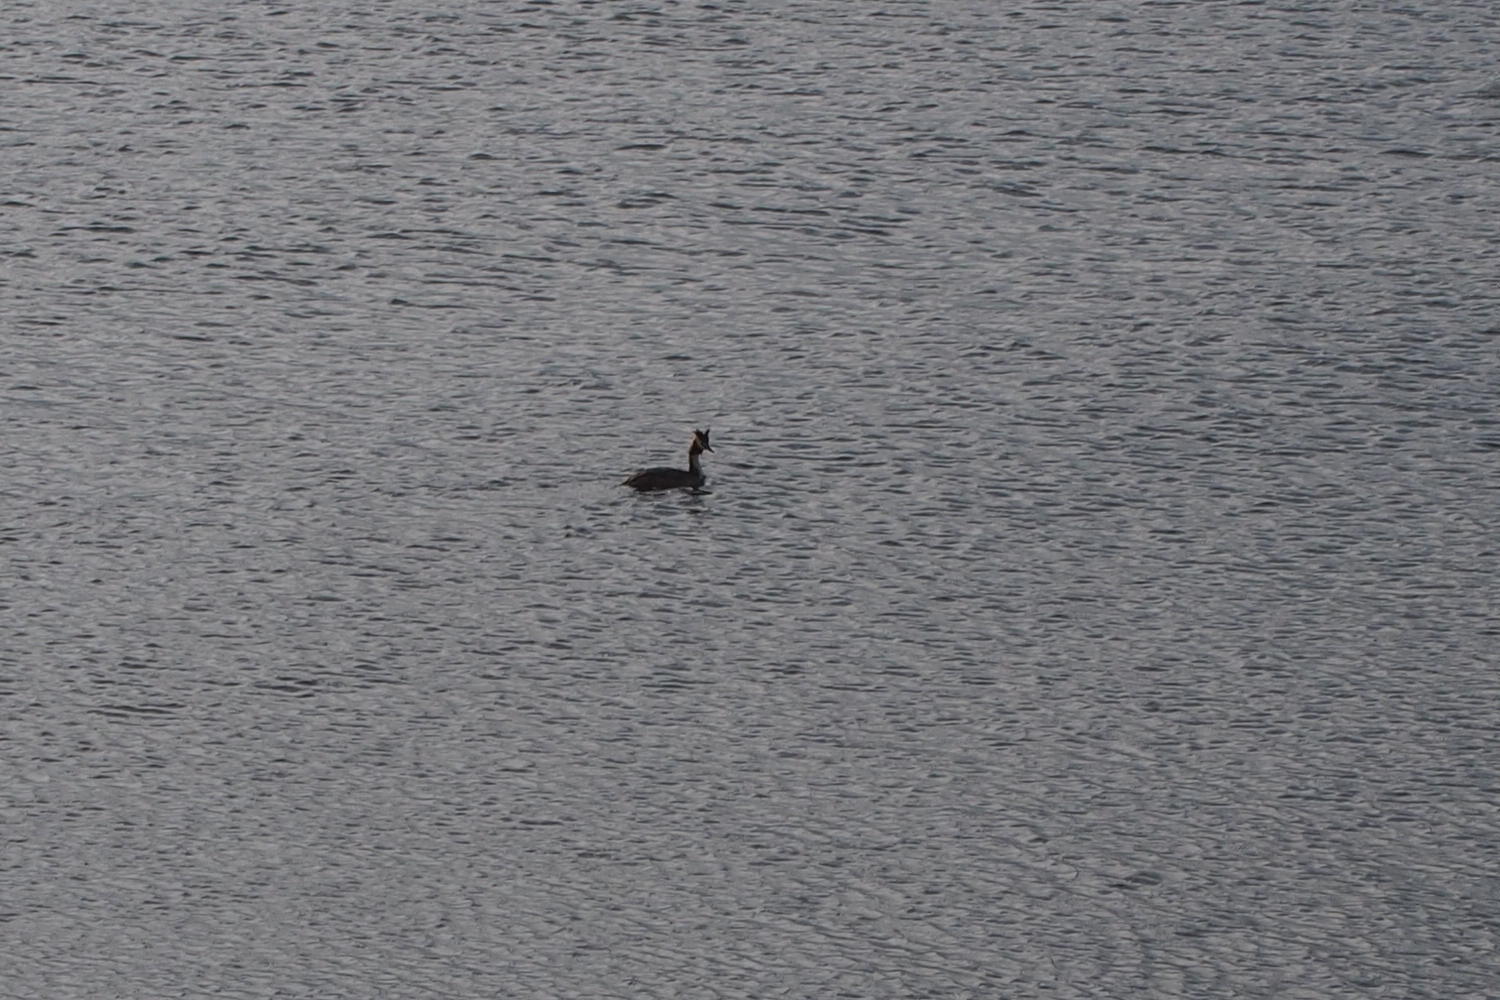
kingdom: Animalia
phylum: Chordata
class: Aves
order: Podicipediformes
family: Podicipedidae
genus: Podiceps
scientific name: Podiceps cristatus
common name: Great crested grebe
